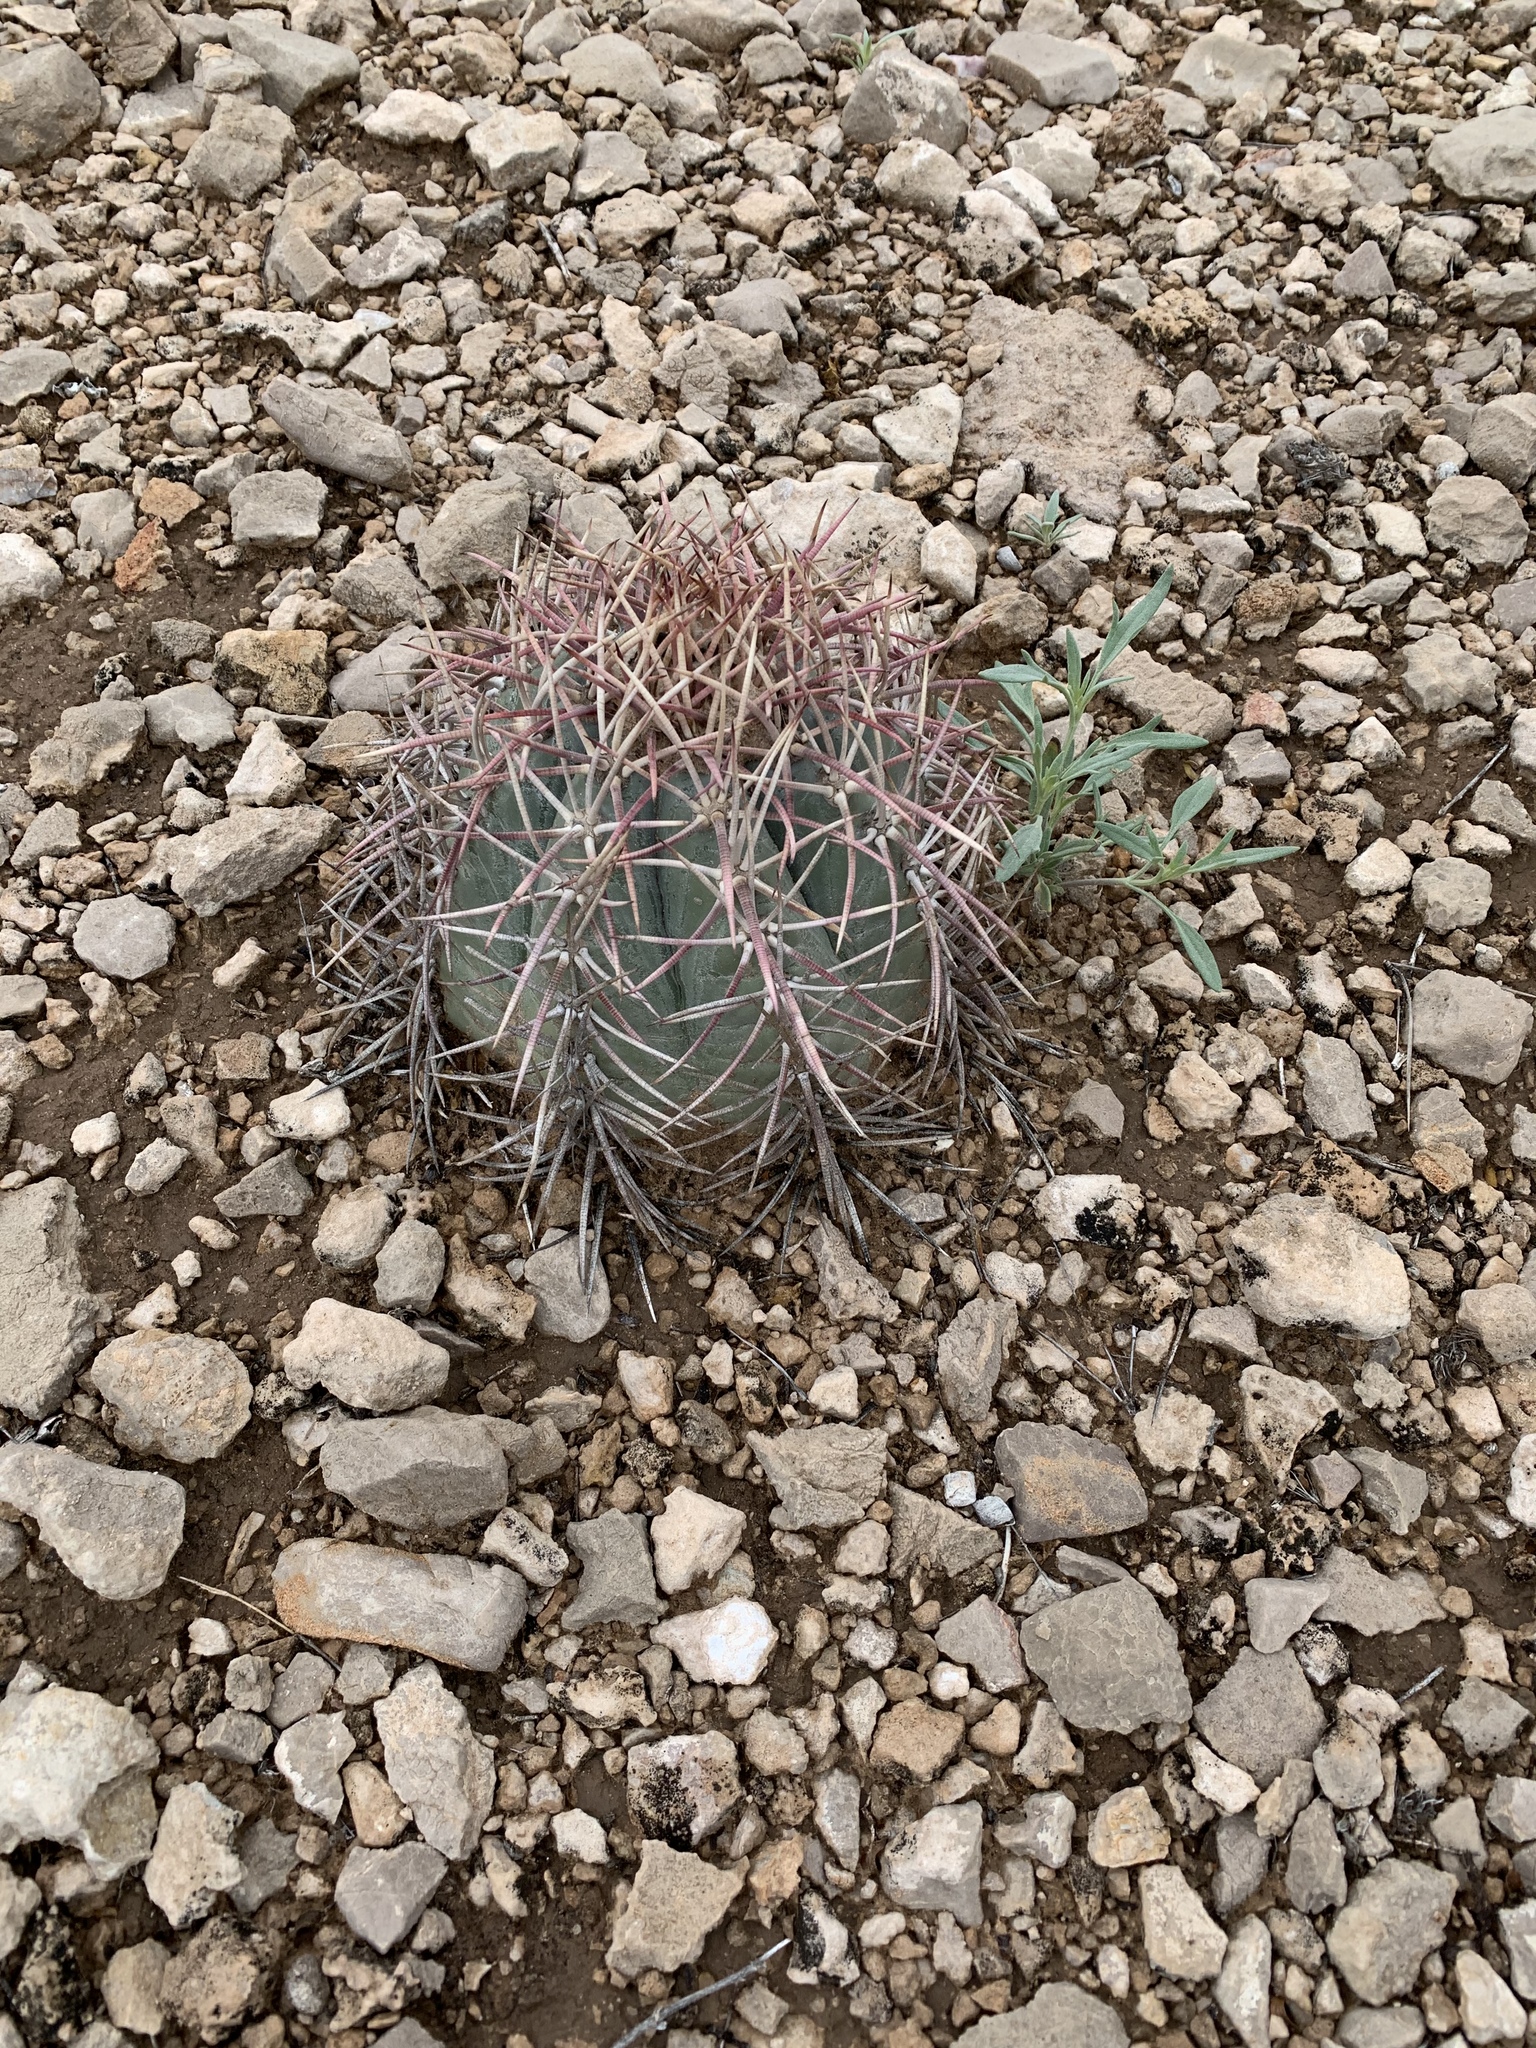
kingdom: Plantae
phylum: Tracheophyta
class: Magnoliopsida
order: Caryophyllales
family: Cactaceae
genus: Echinocactus
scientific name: Echinocactus horizonthalonius
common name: Devilshead
